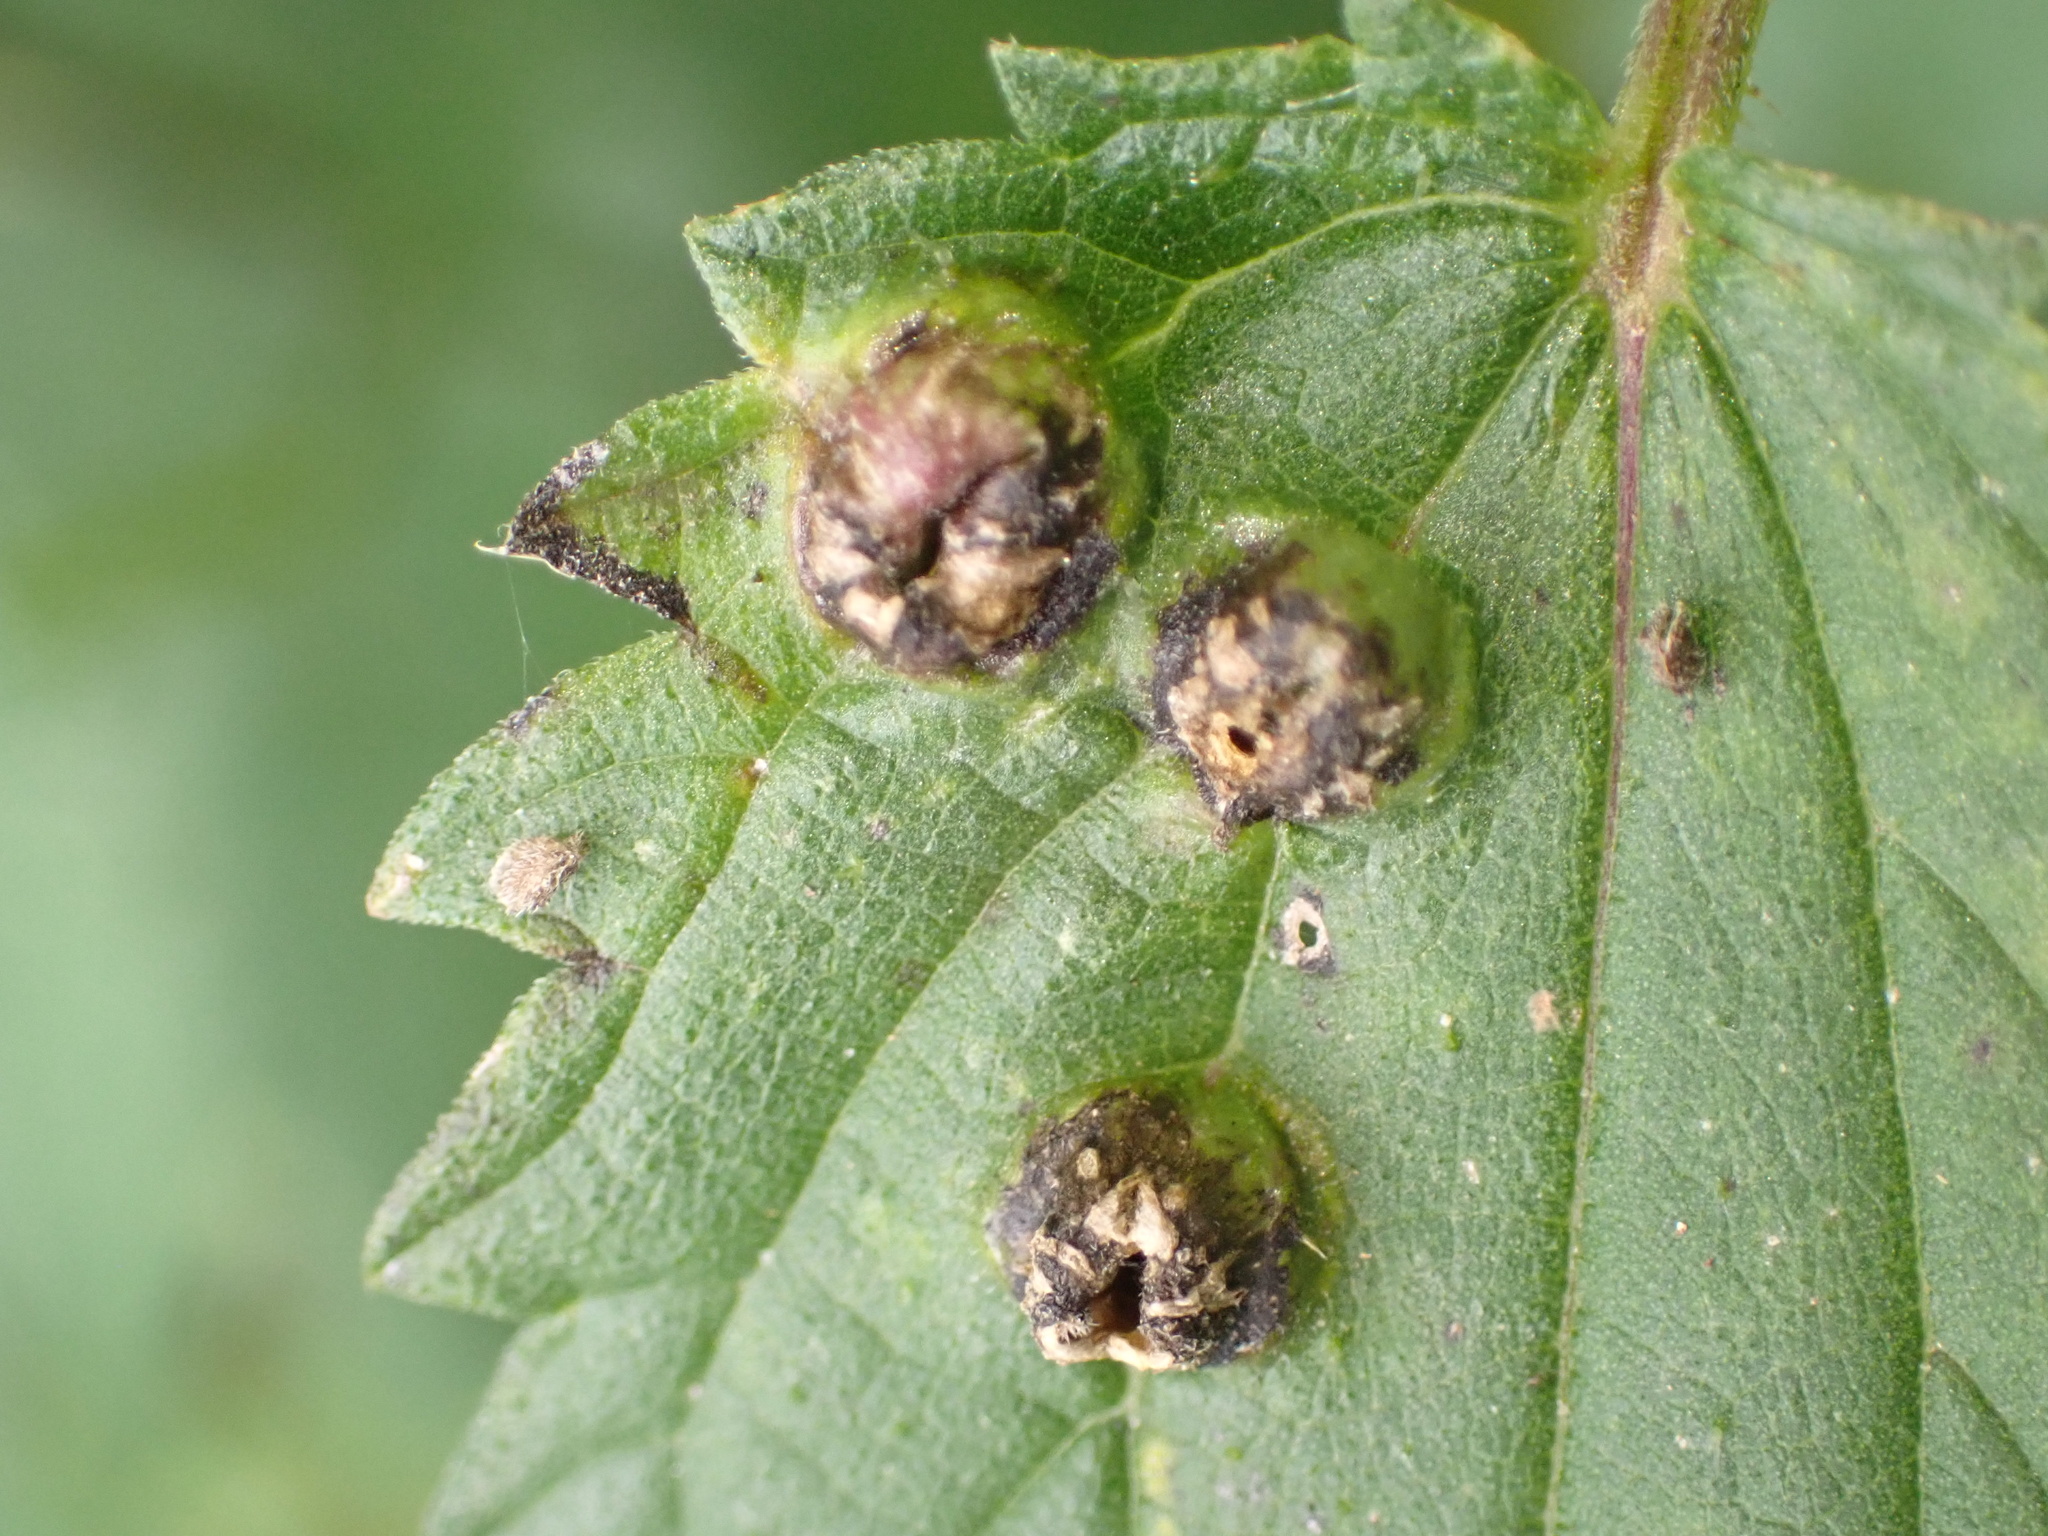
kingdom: Animalia
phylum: Arthropoda
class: Insecta
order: Diptera
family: Cecidomyiidae
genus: Dasineura
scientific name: Dasineura urticae
